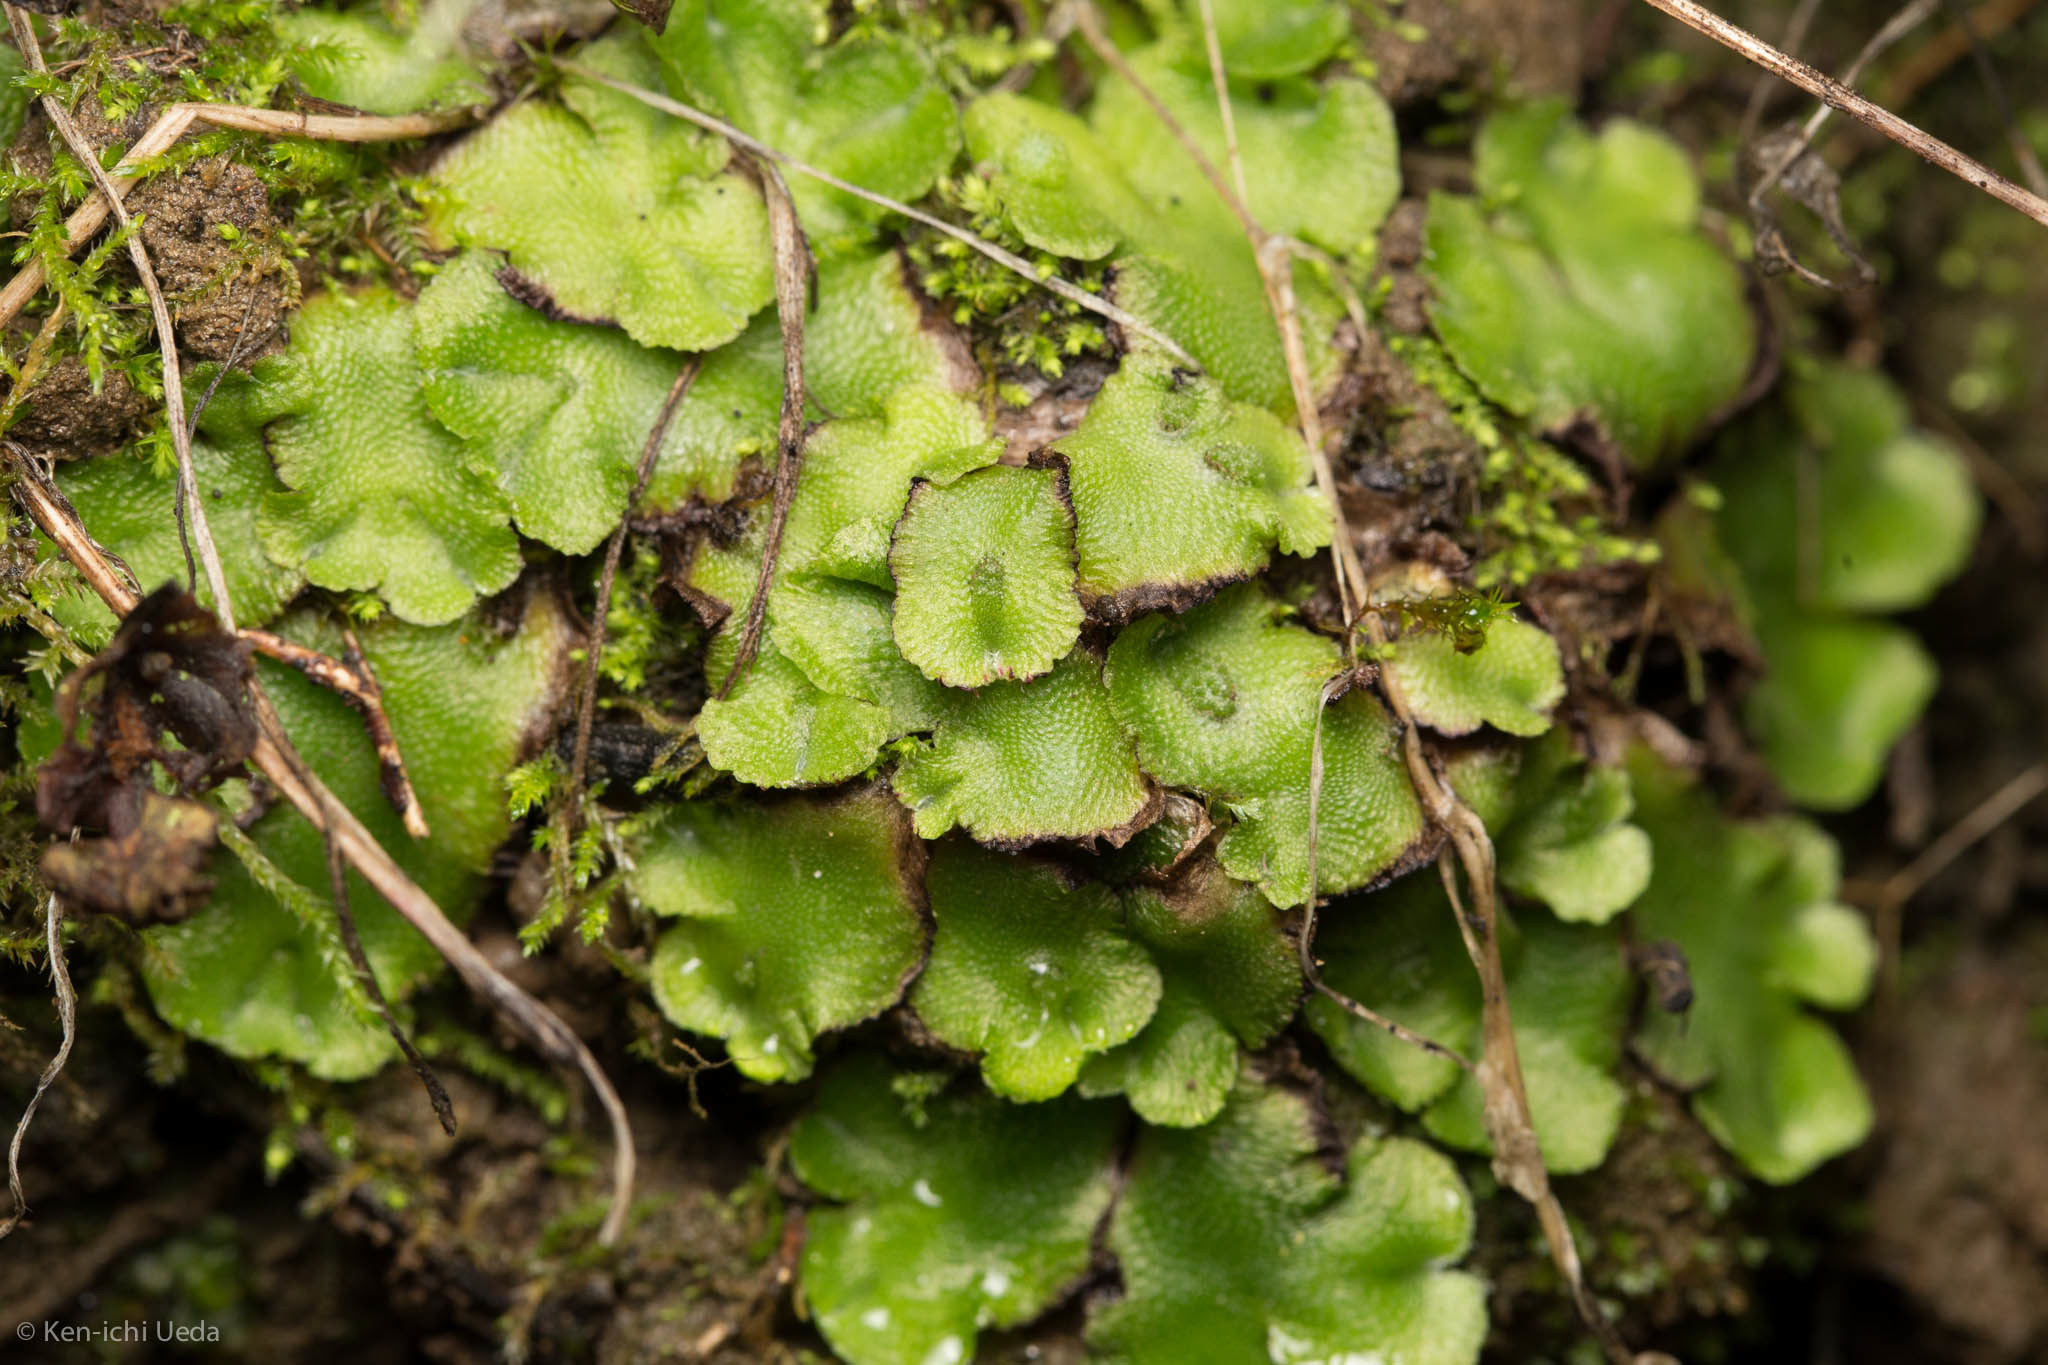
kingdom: Plantae
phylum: Marchantiophyta
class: Marchantiopsida
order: Marchantiales
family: Aytoniaceae
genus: Asterella
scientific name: Asterella californica
